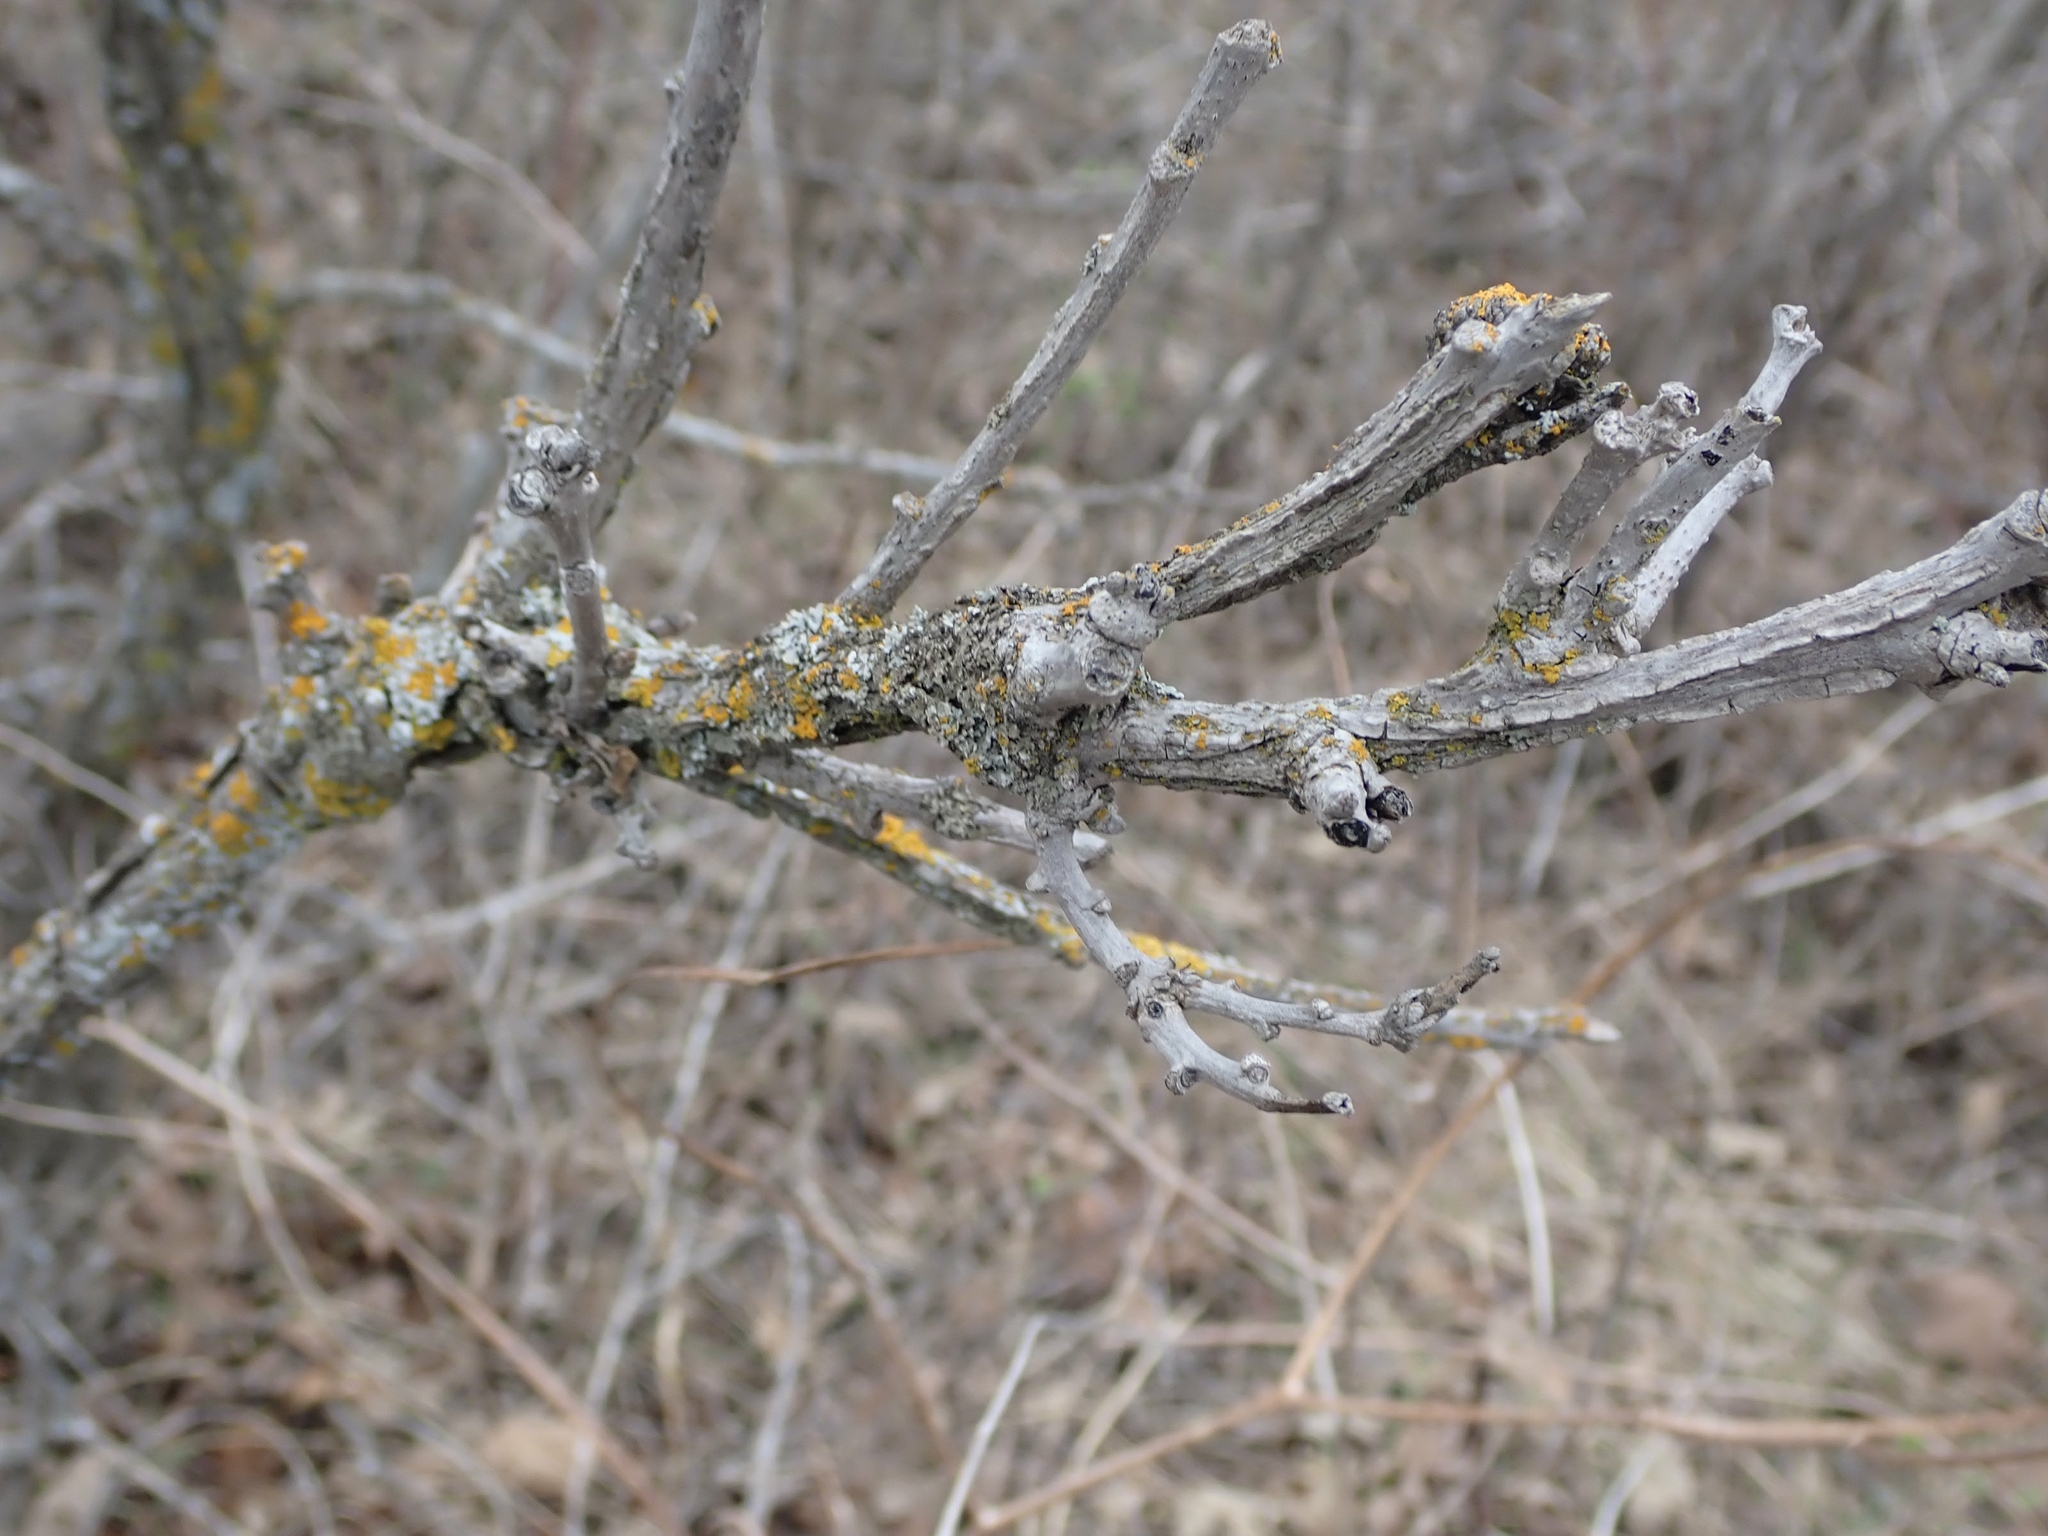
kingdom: Plantae
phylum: Tracheophyta
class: Magnoliopsida
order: Fagales
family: Fagaceae
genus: Quercus
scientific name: Quercus macrocarpa
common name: Bur oak
